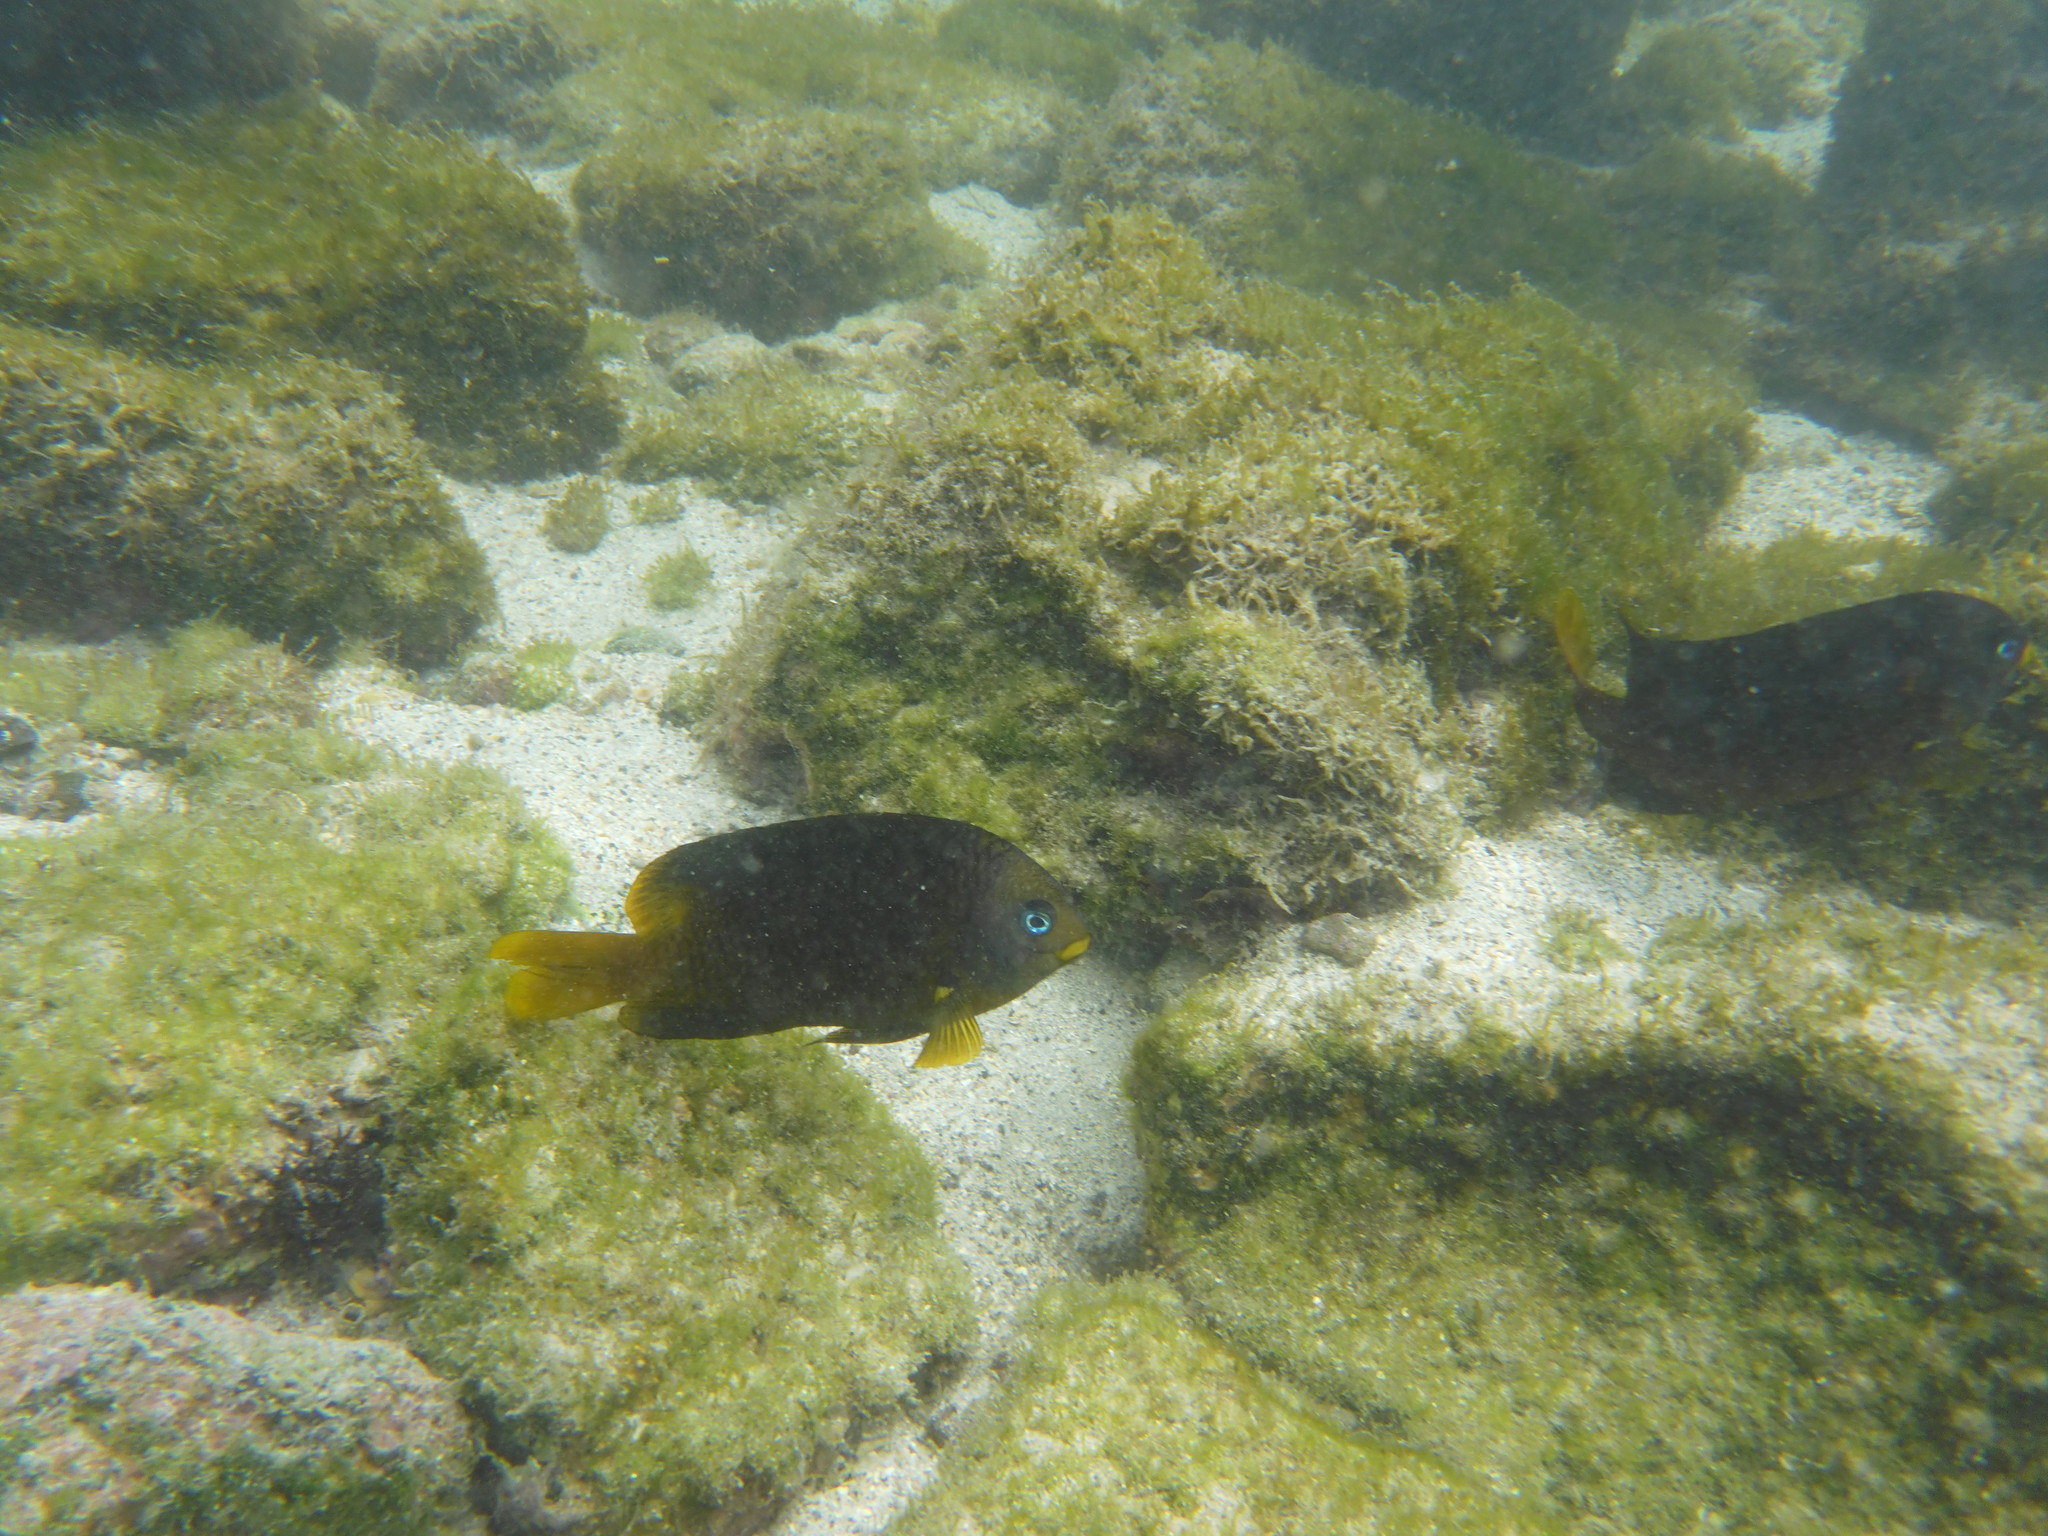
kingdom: Animalia
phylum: Chordata
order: Perciformes
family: Pomacentridae
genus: Stegastes
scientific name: Stegastes arcifrons
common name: Galapagos gregory
